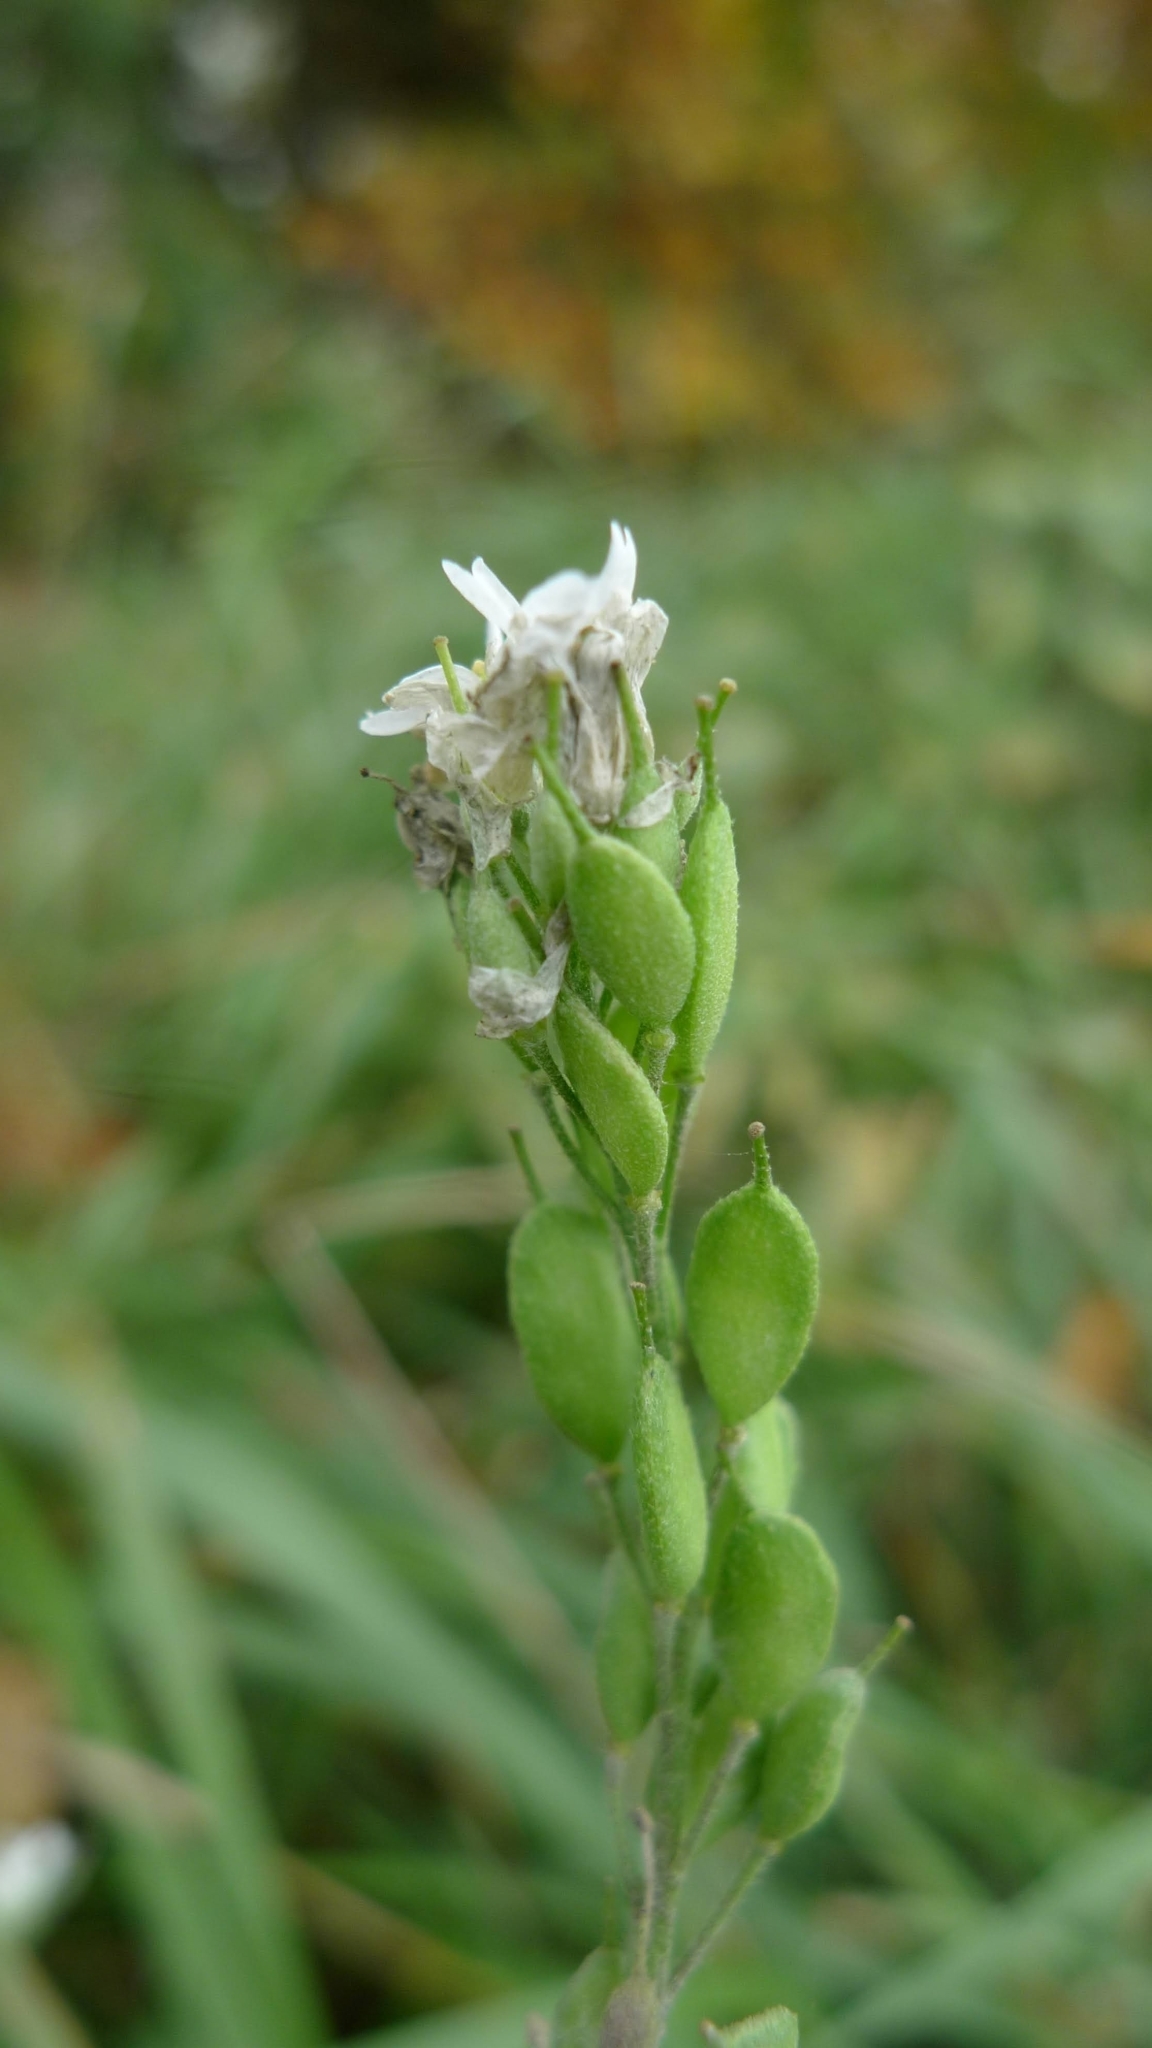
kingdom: Plantae
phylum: Tracheophyta
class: Magnoliopsida
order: Brassicales
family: Brassicaceae
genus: Berteroa
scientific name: Berteroa incana
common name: Hoary alison
